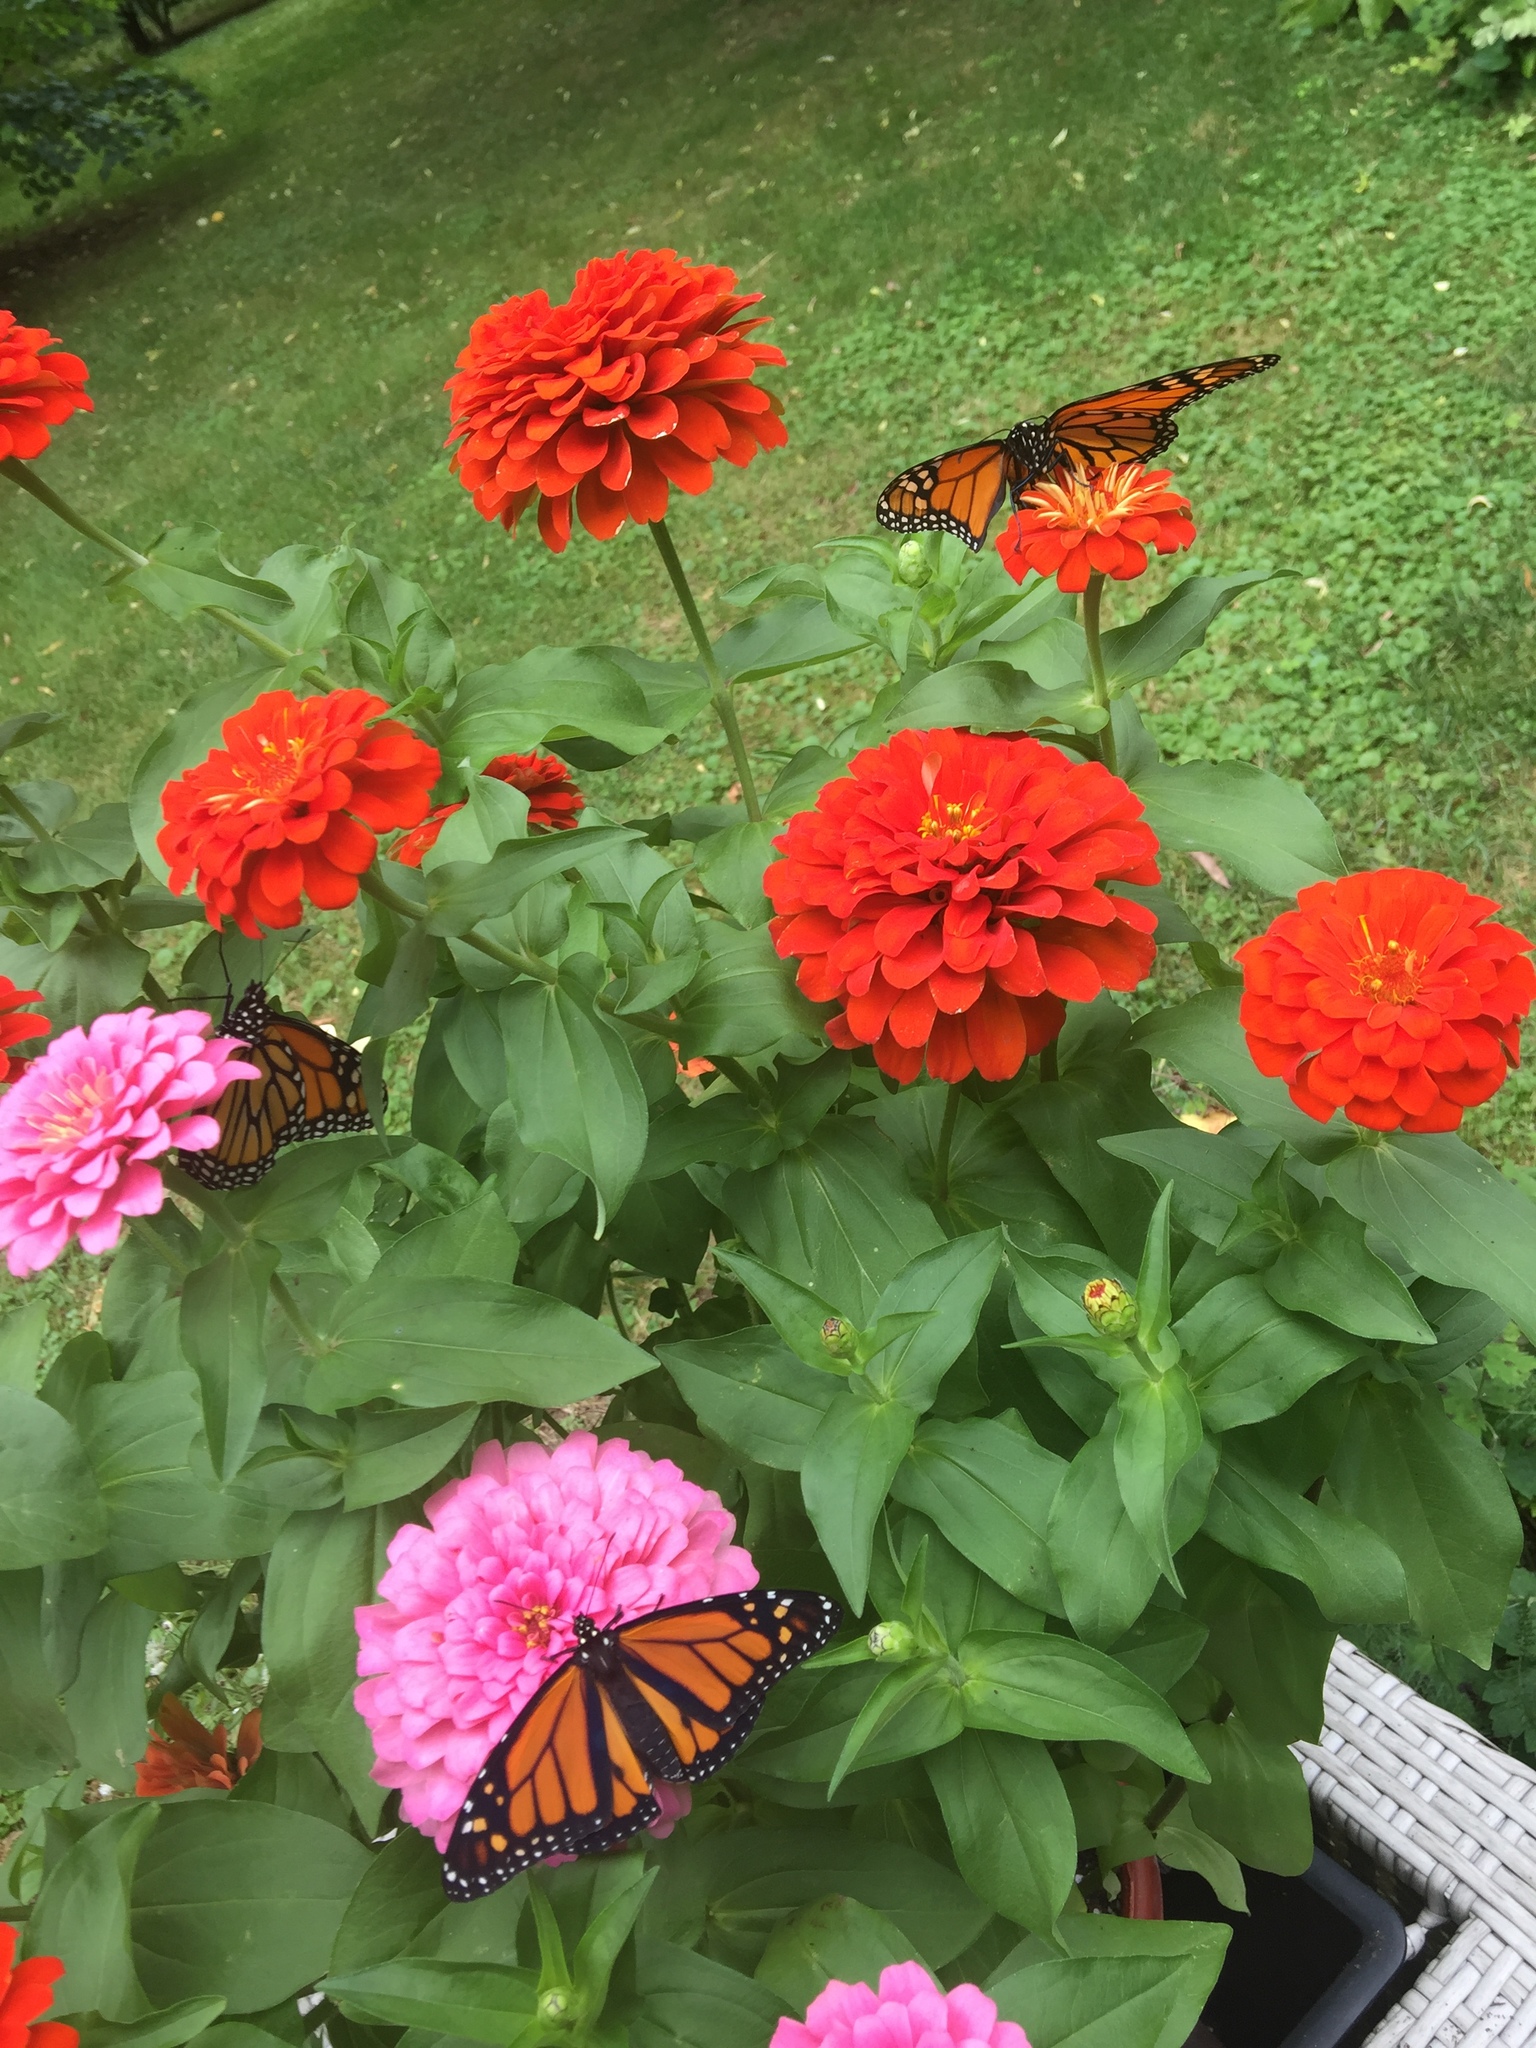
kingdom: Animalia
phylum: Arthropoda
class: Insecta
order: Lepidoptera
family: Nymphalidae
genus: Danaus
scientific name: Danaus plexippus
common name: Monarch
